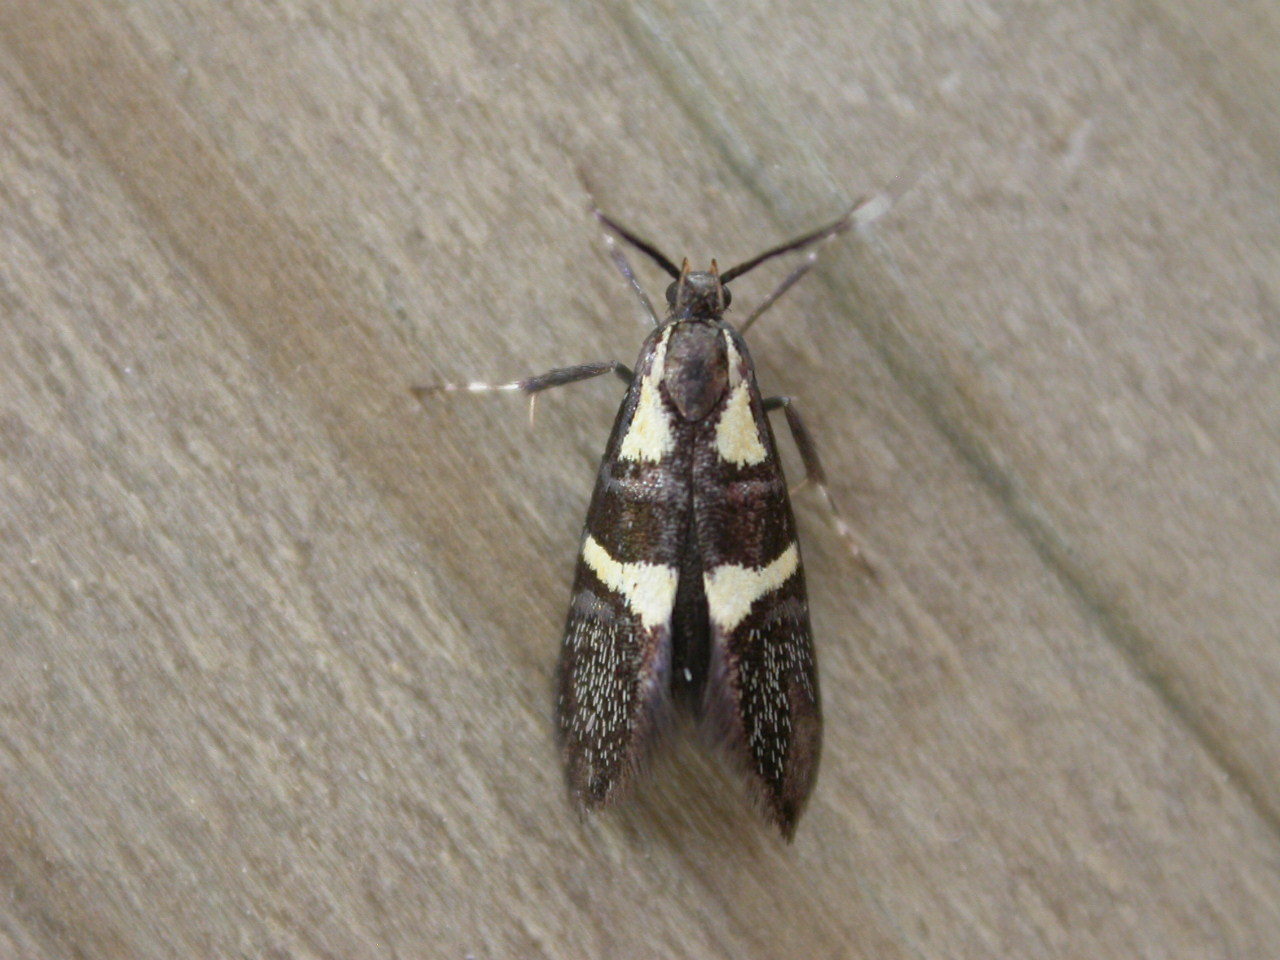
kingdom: Animalia
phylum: Arthropoda
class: Insecta
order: Lepidoptera
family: Oecophoridae
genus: Dafa
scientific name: Dafa oliviella
